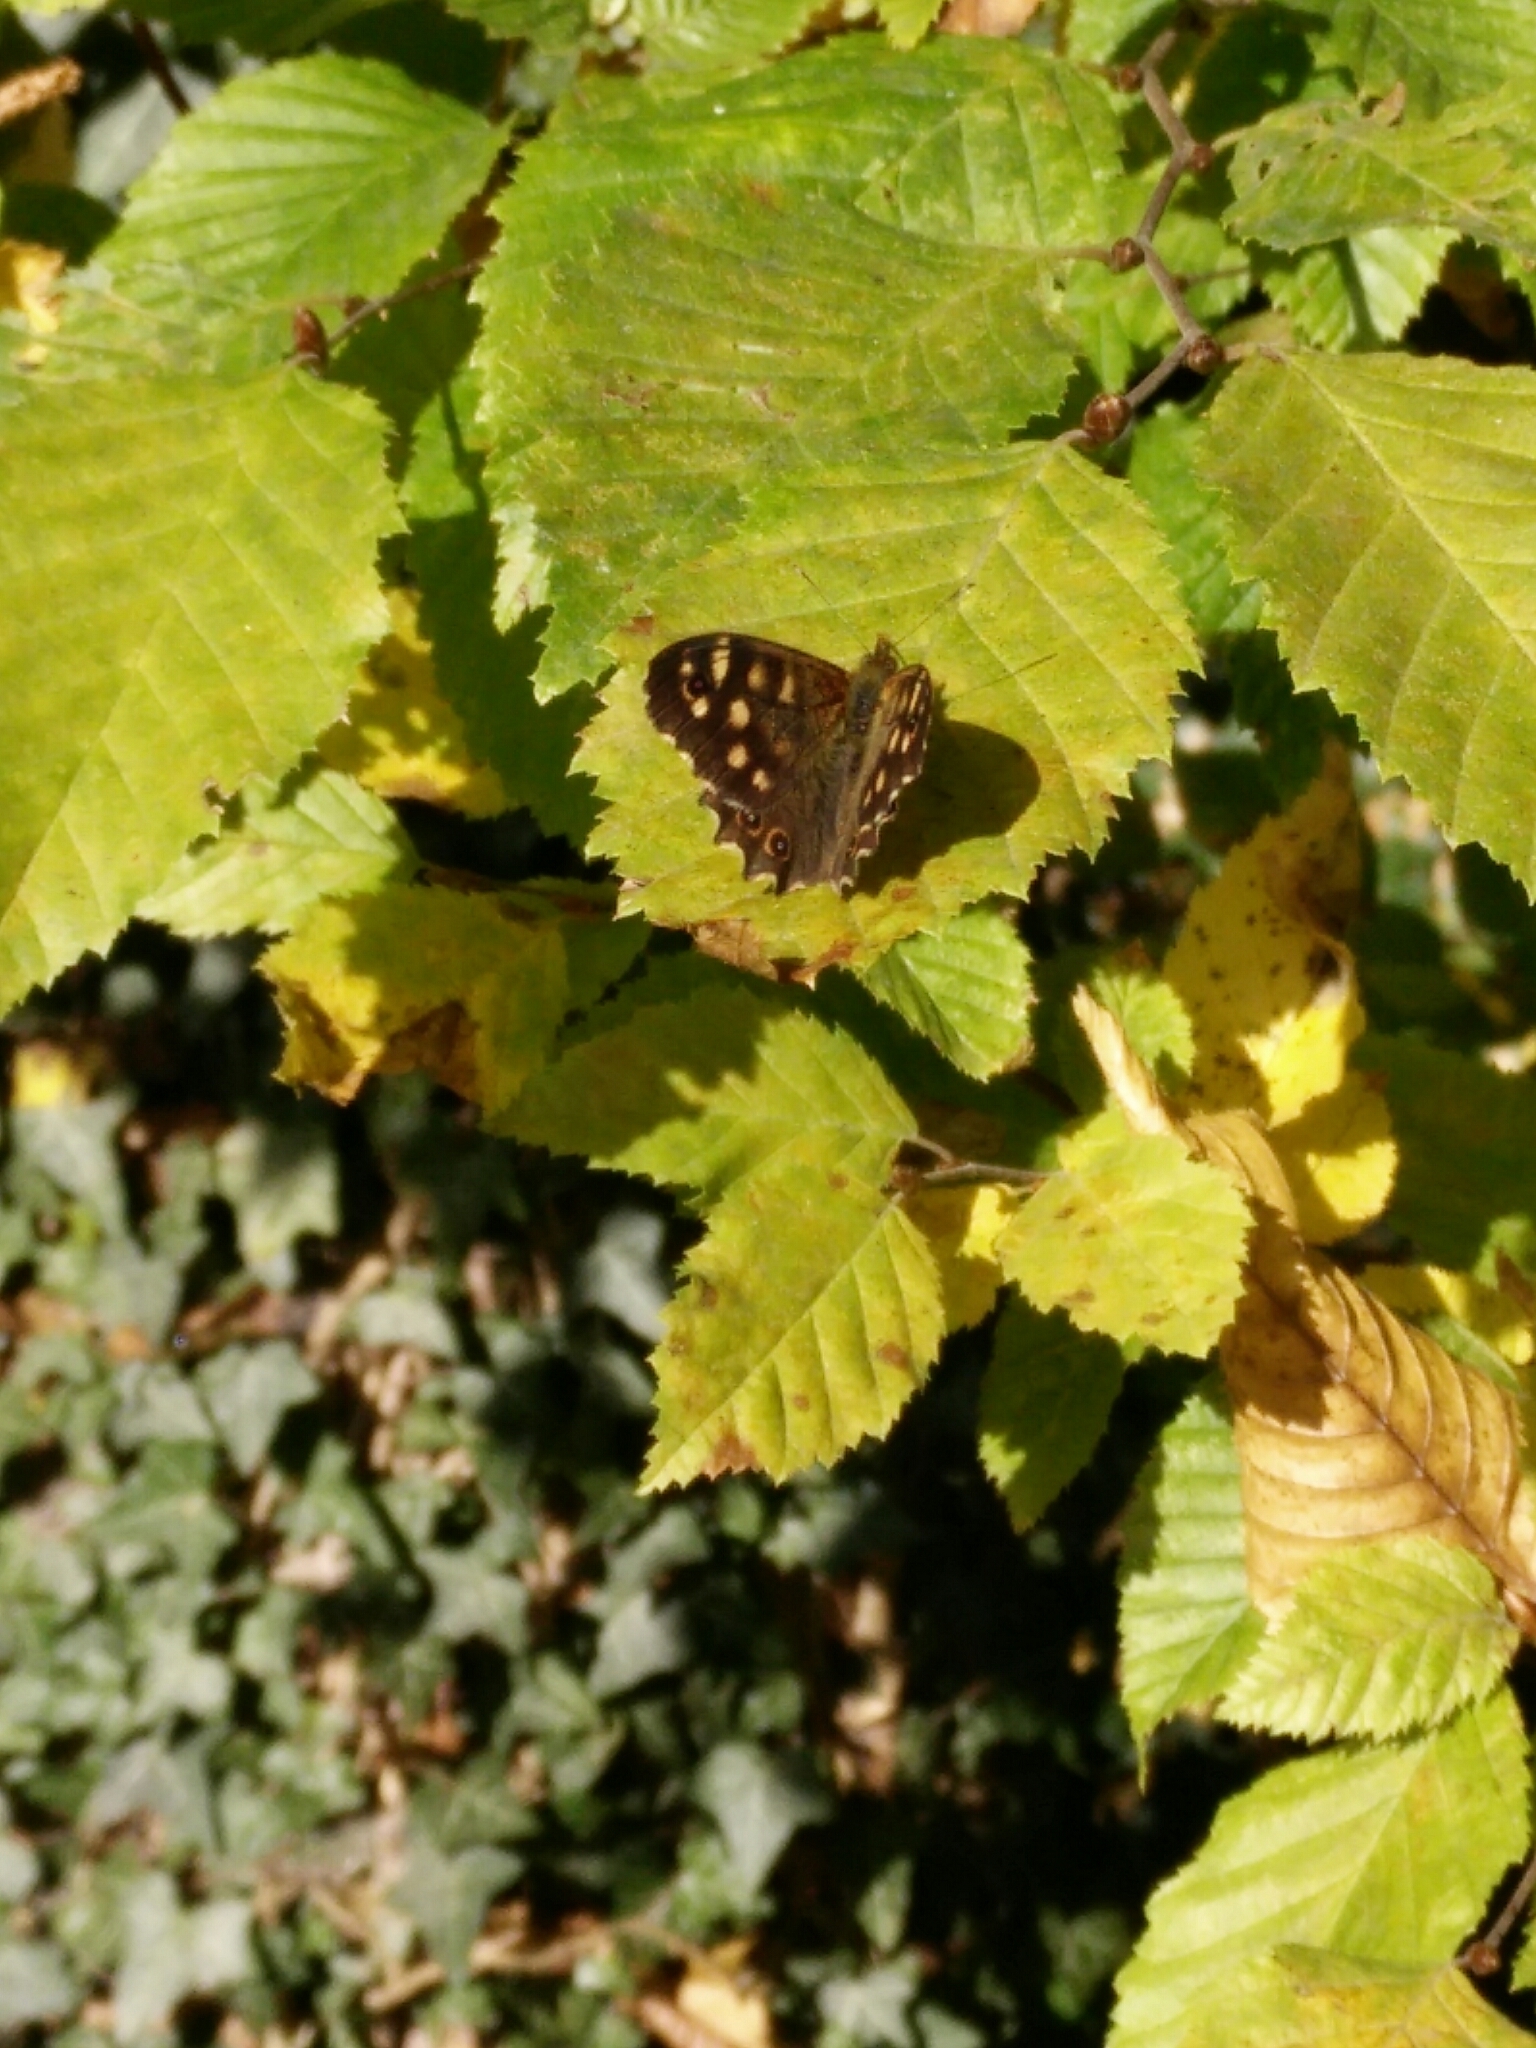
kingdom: Animalia
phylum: Arthropoda
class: Insecta
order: Lepidoptera
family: Nymphalidae
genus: Pararge
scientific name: Pararge aegeria
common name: Speckled wood
